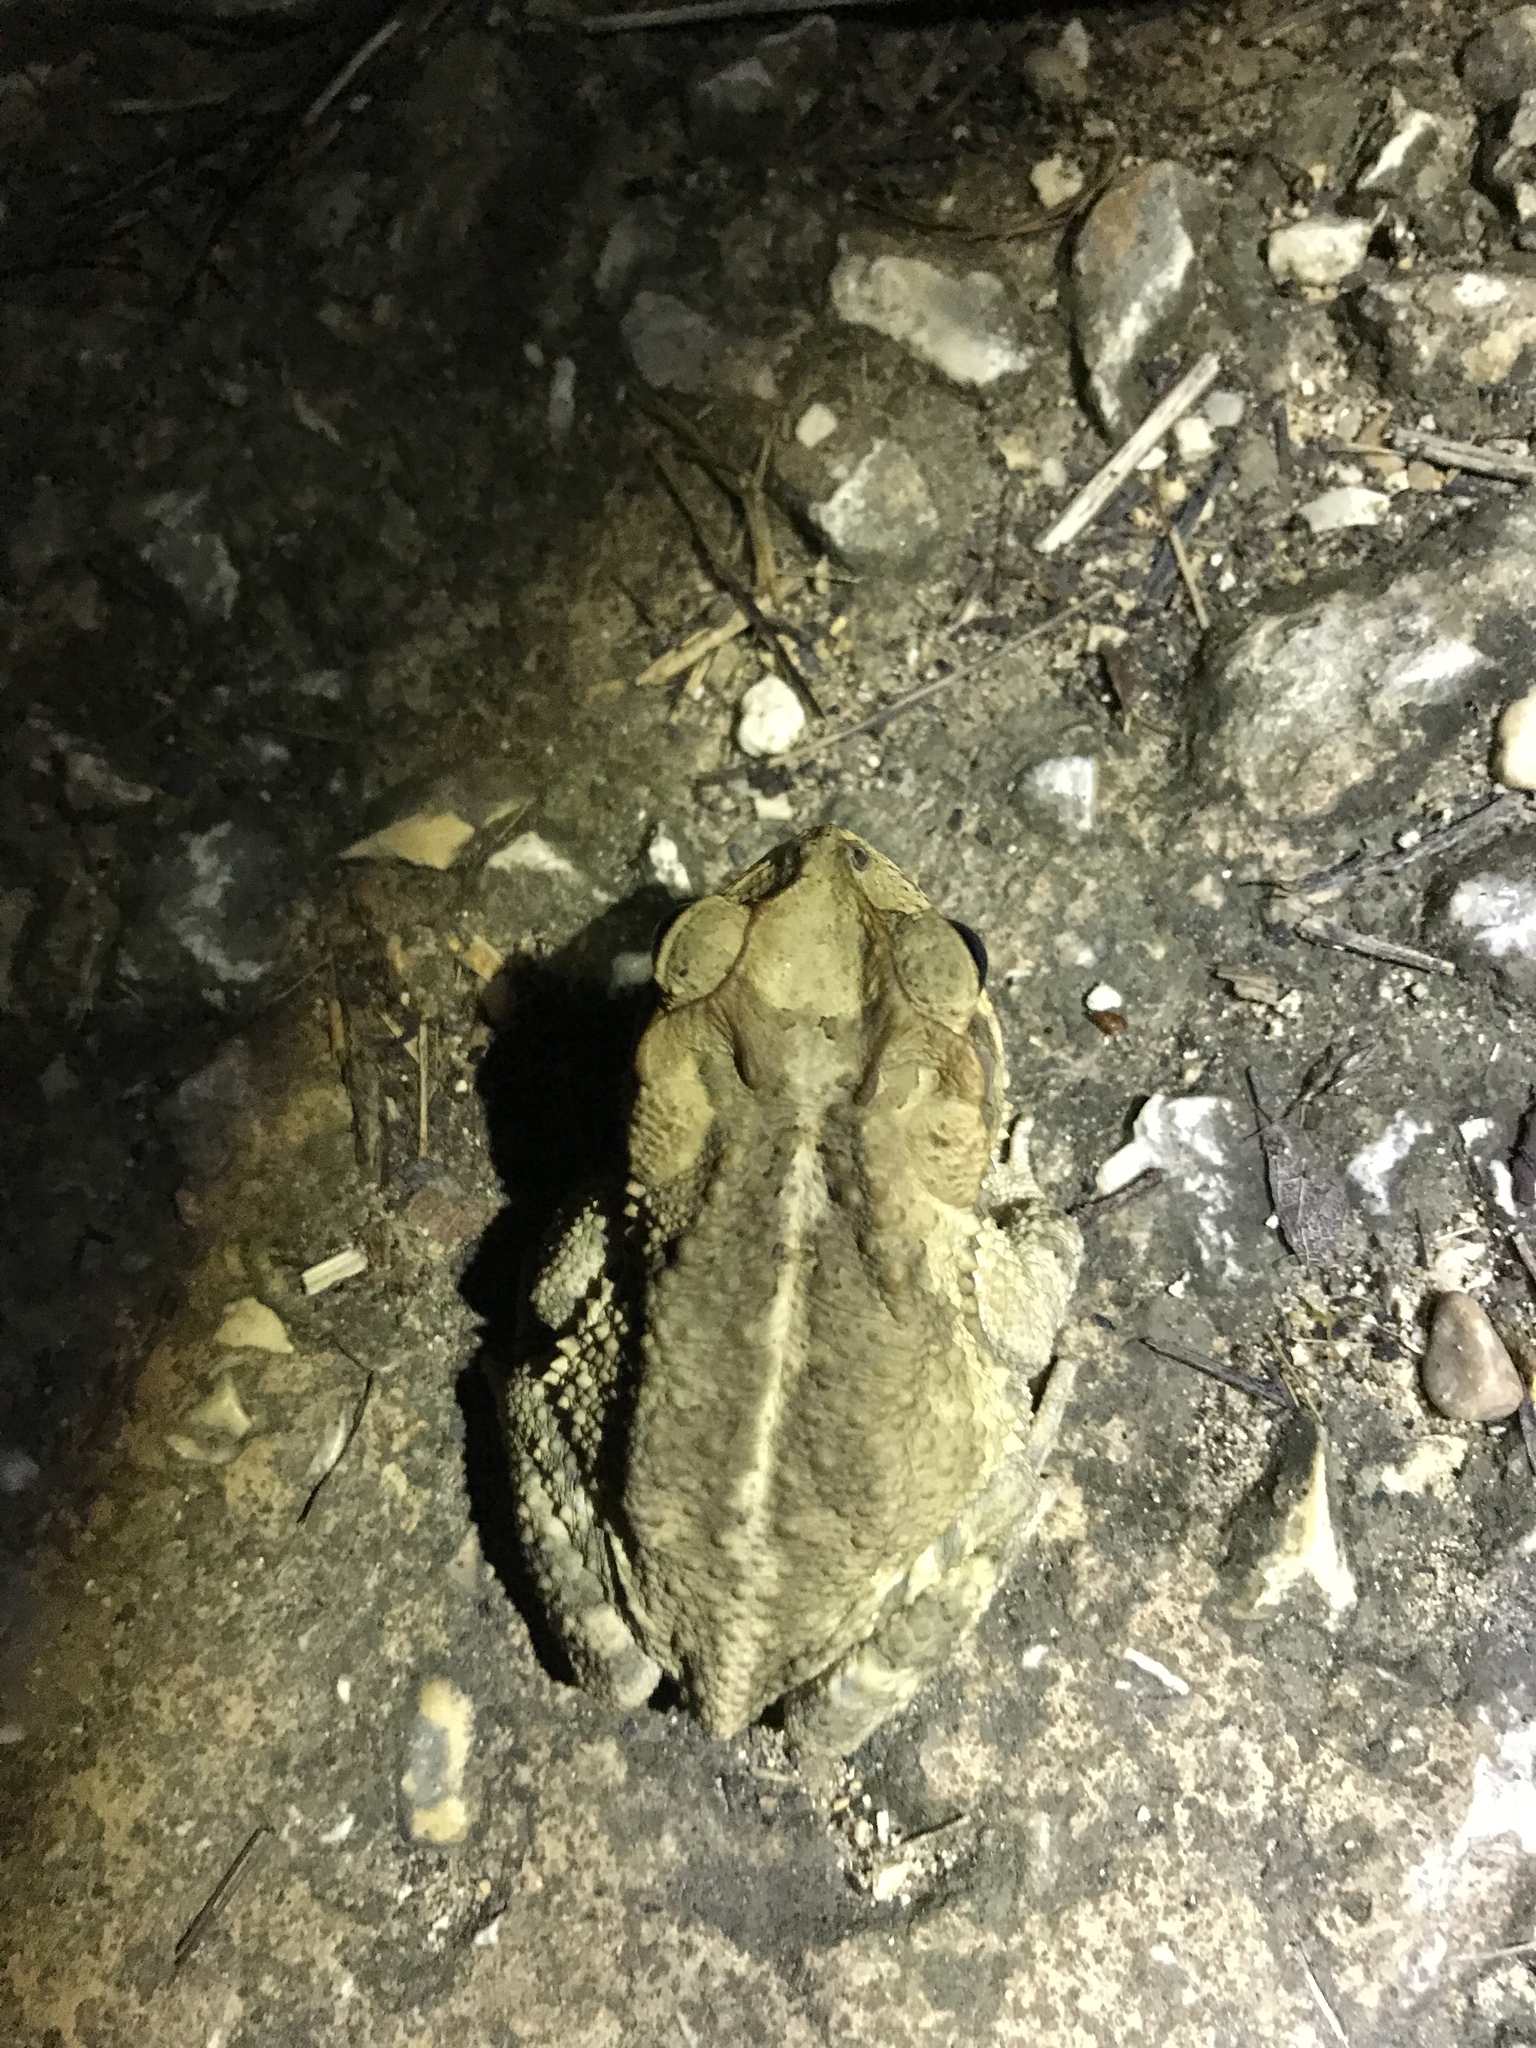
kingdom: Animalia
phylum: Chordata
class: Amphibia
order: Anura
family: Bufonidae
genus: Incilius
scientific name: Incilius nebulifer
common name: Gulf coast toad
